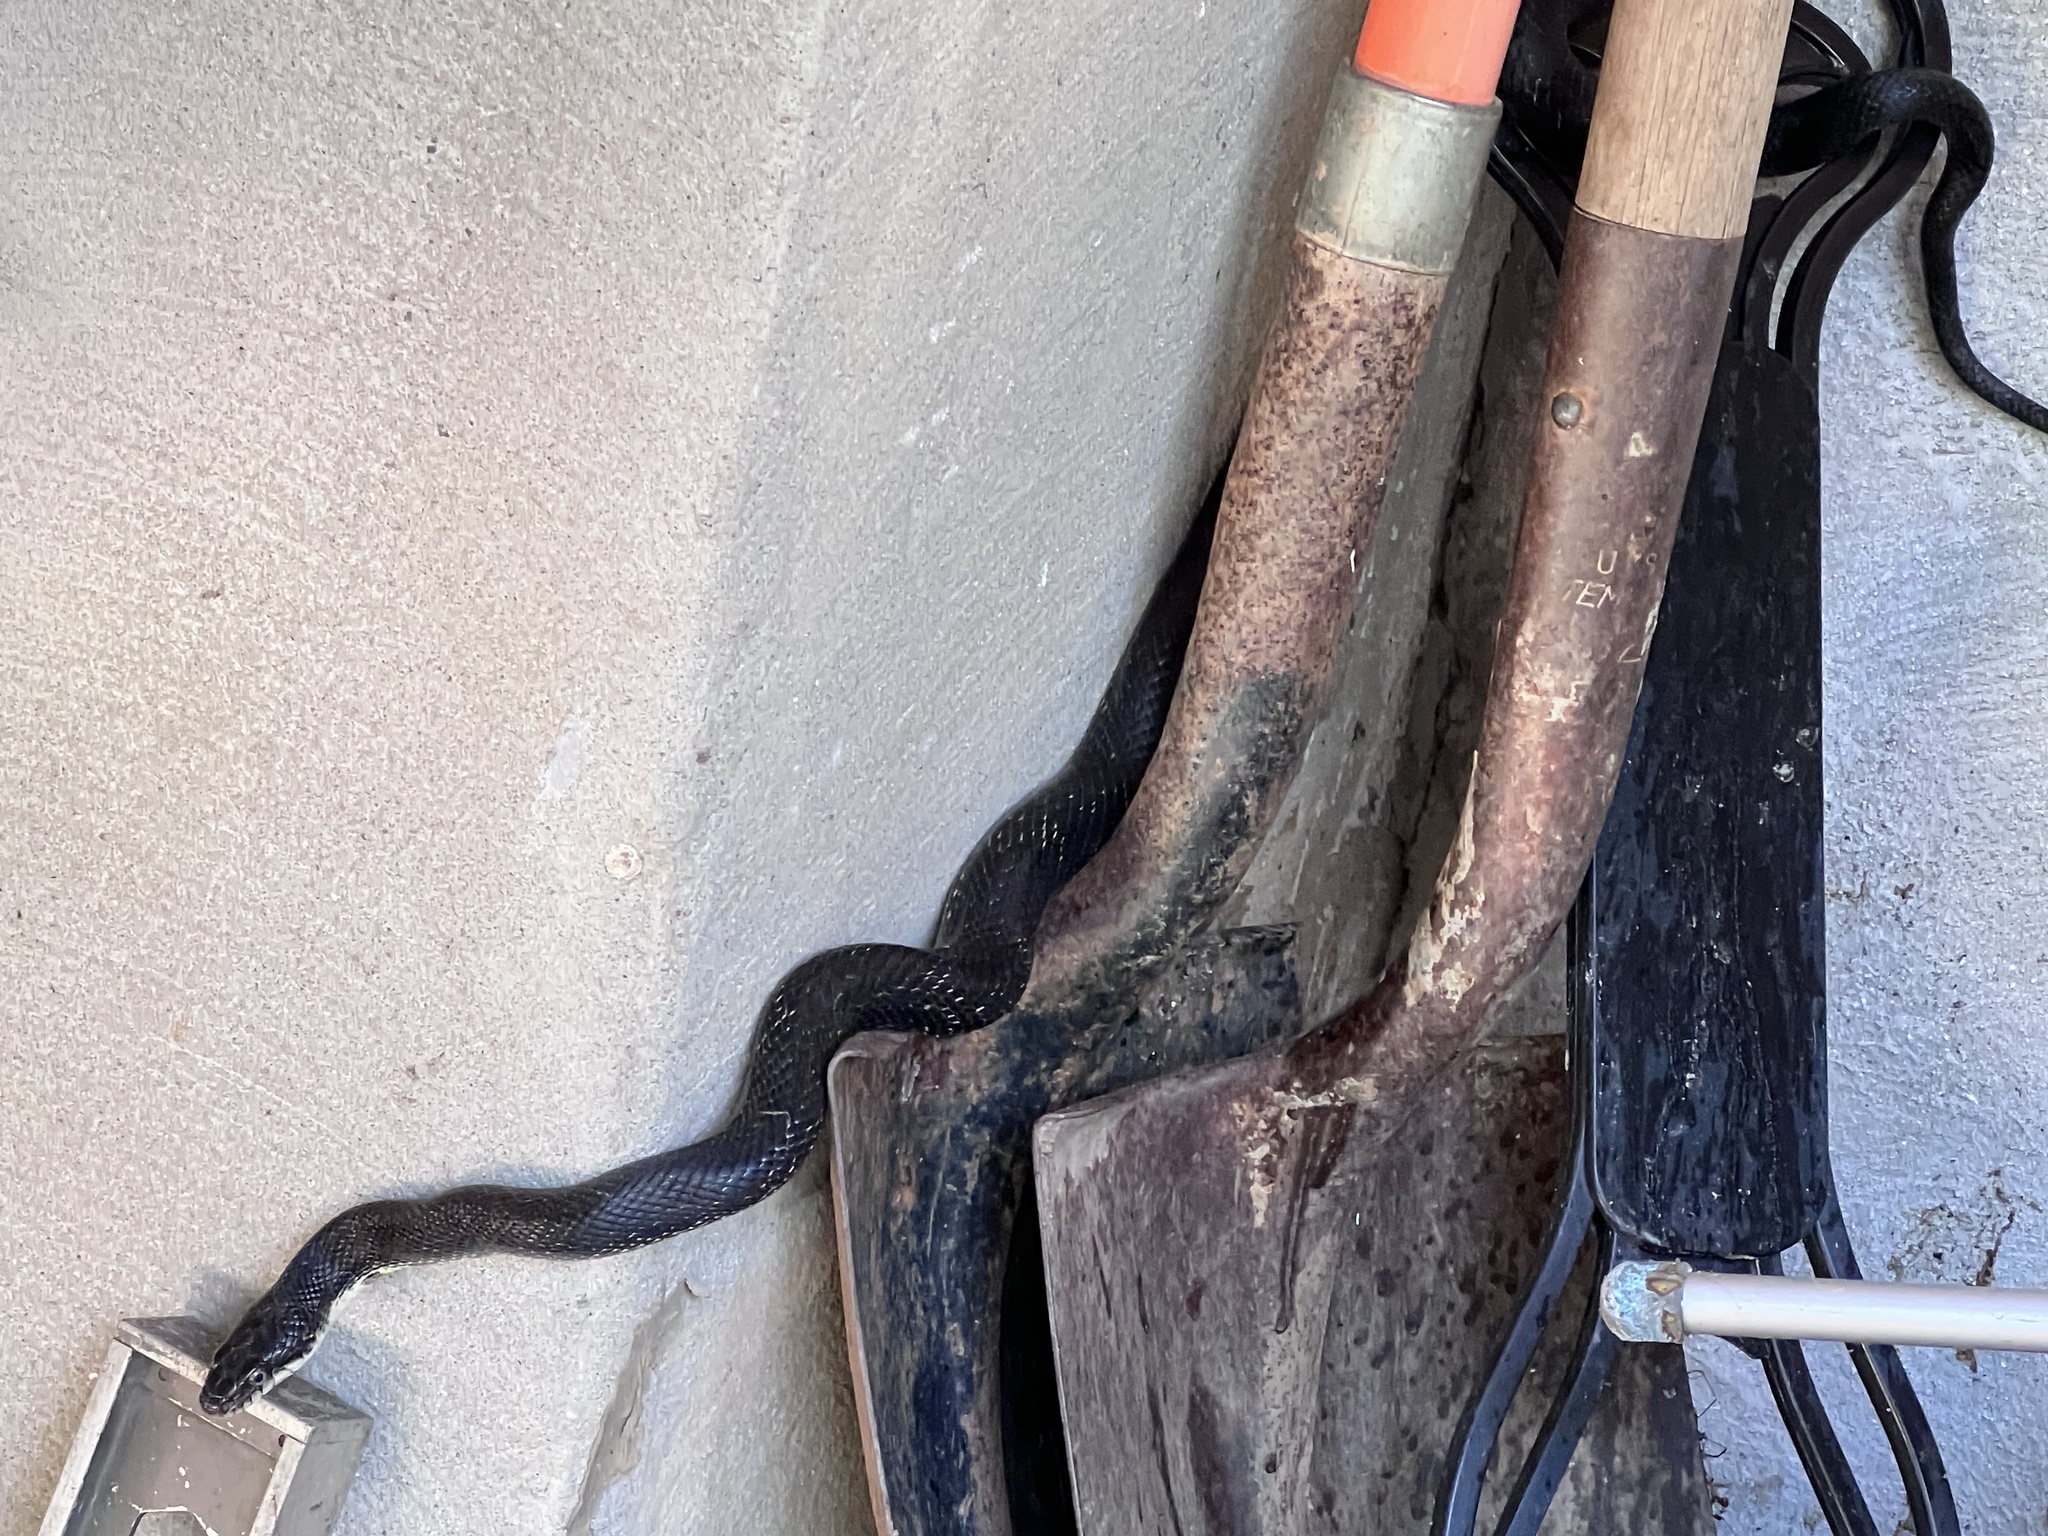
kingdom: Animalia
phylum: Chordata
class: Squamata
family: Colubridae
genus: Pantherophis
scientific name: Pantherophis alleghaniensis
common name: Eastern rat snake
